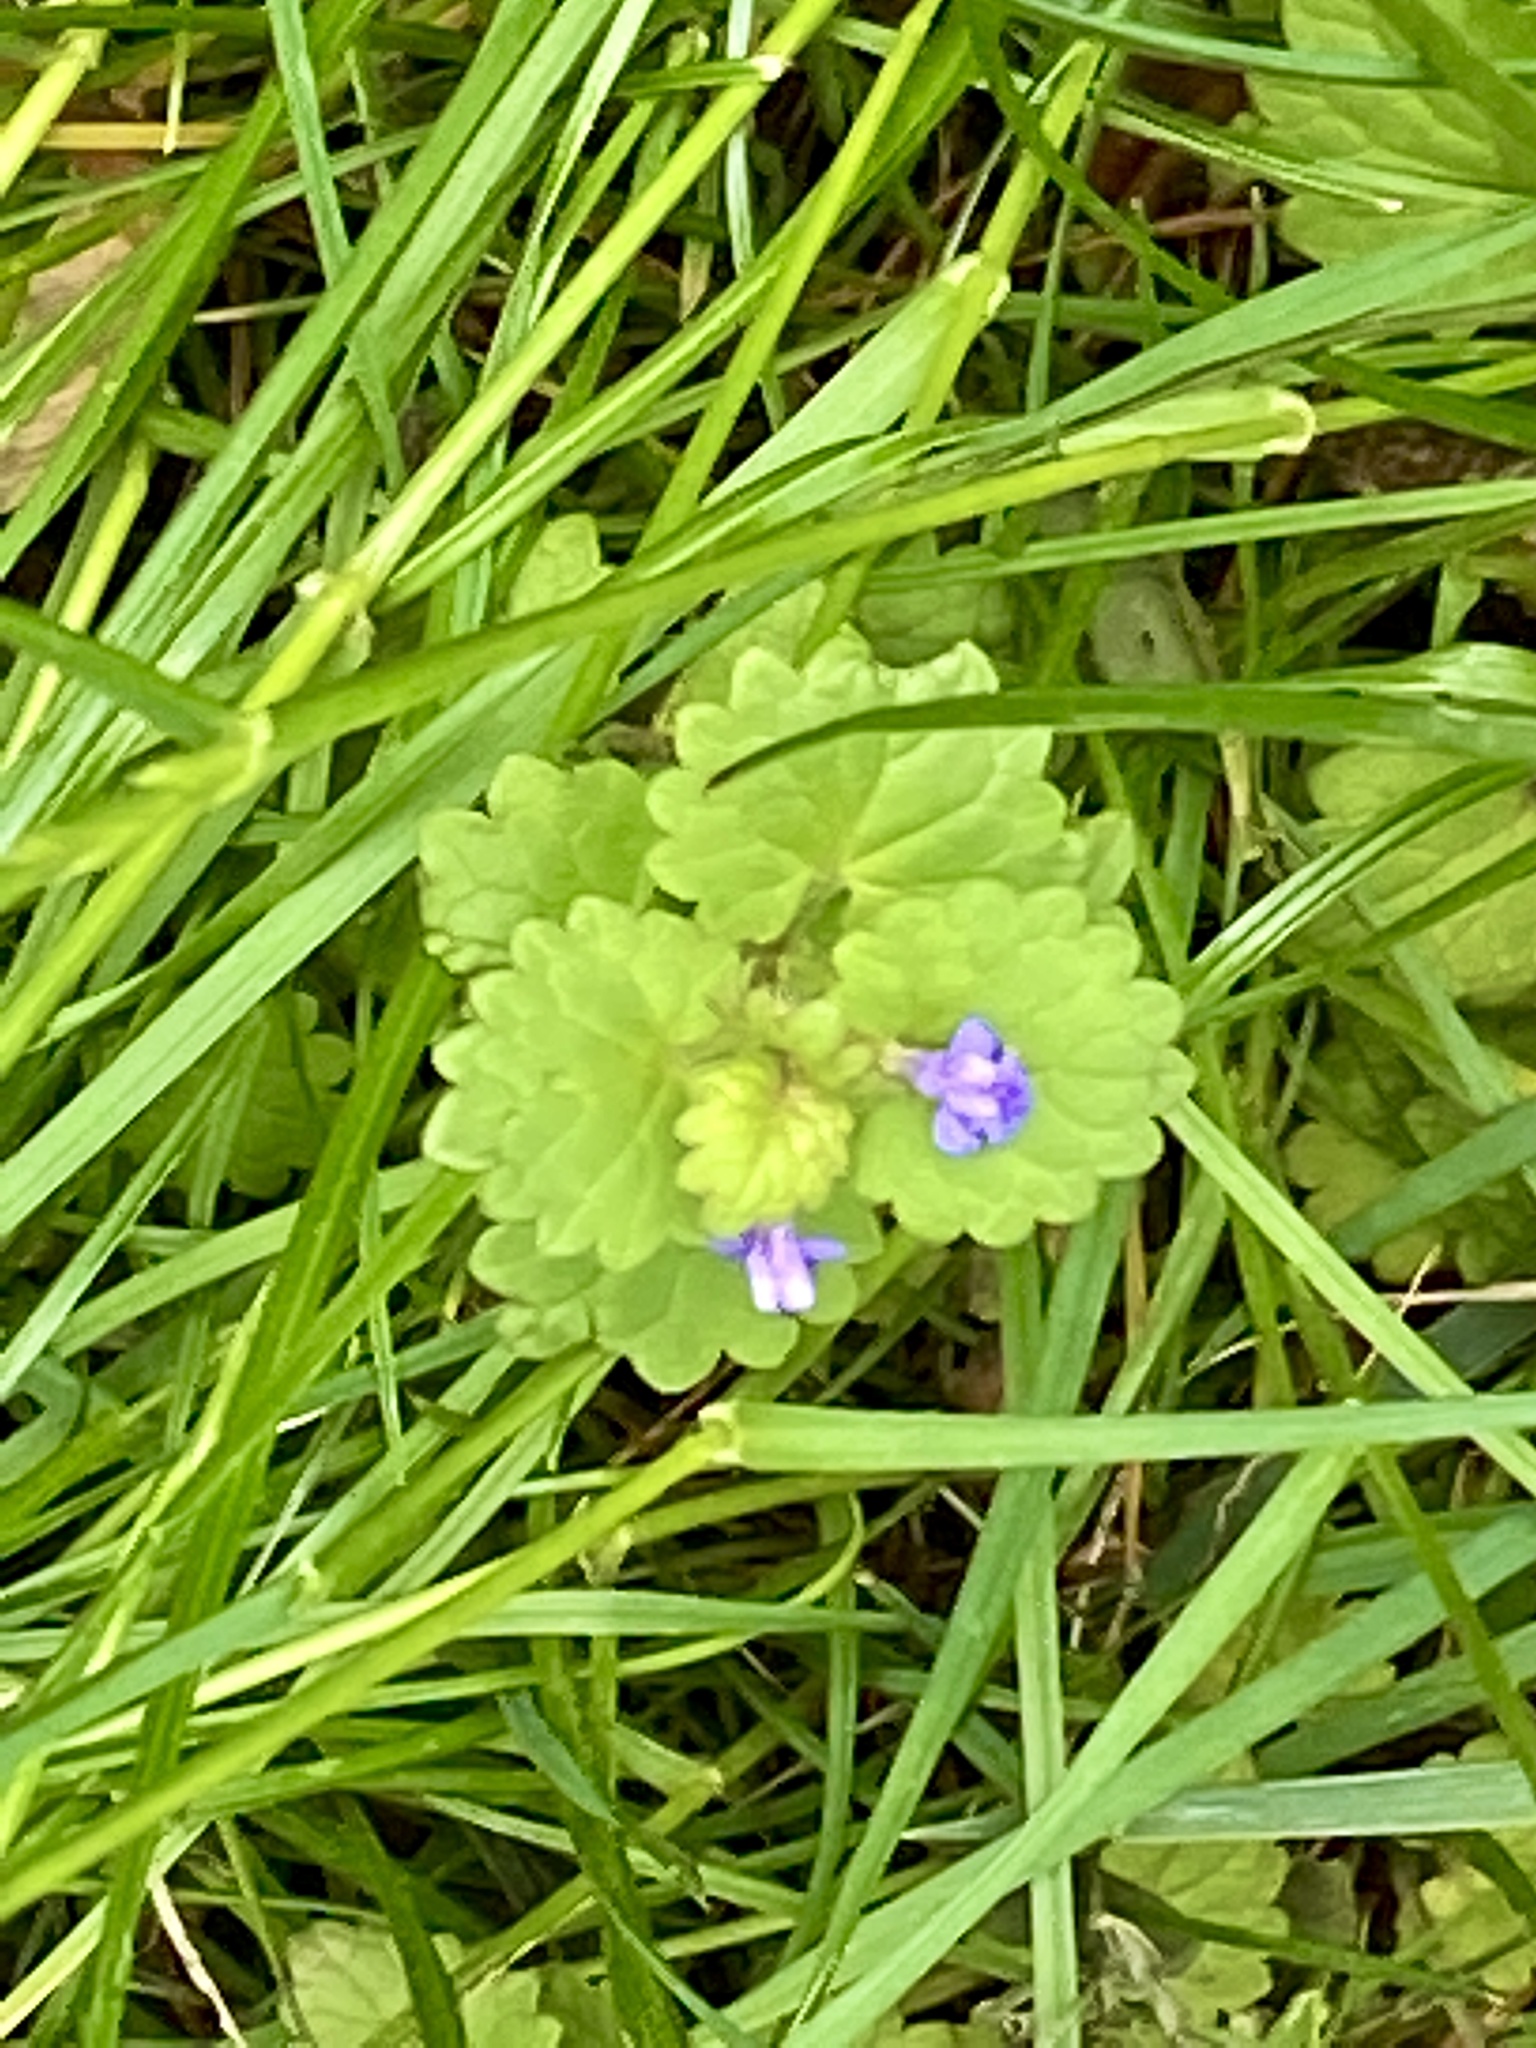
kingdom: Plantae
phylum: Tracheophyta
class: Magnoliopsida
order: Lamiales
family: Lamiaceae
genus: Glechoma
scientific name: Glechoma hederacea
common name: Ground ivy
